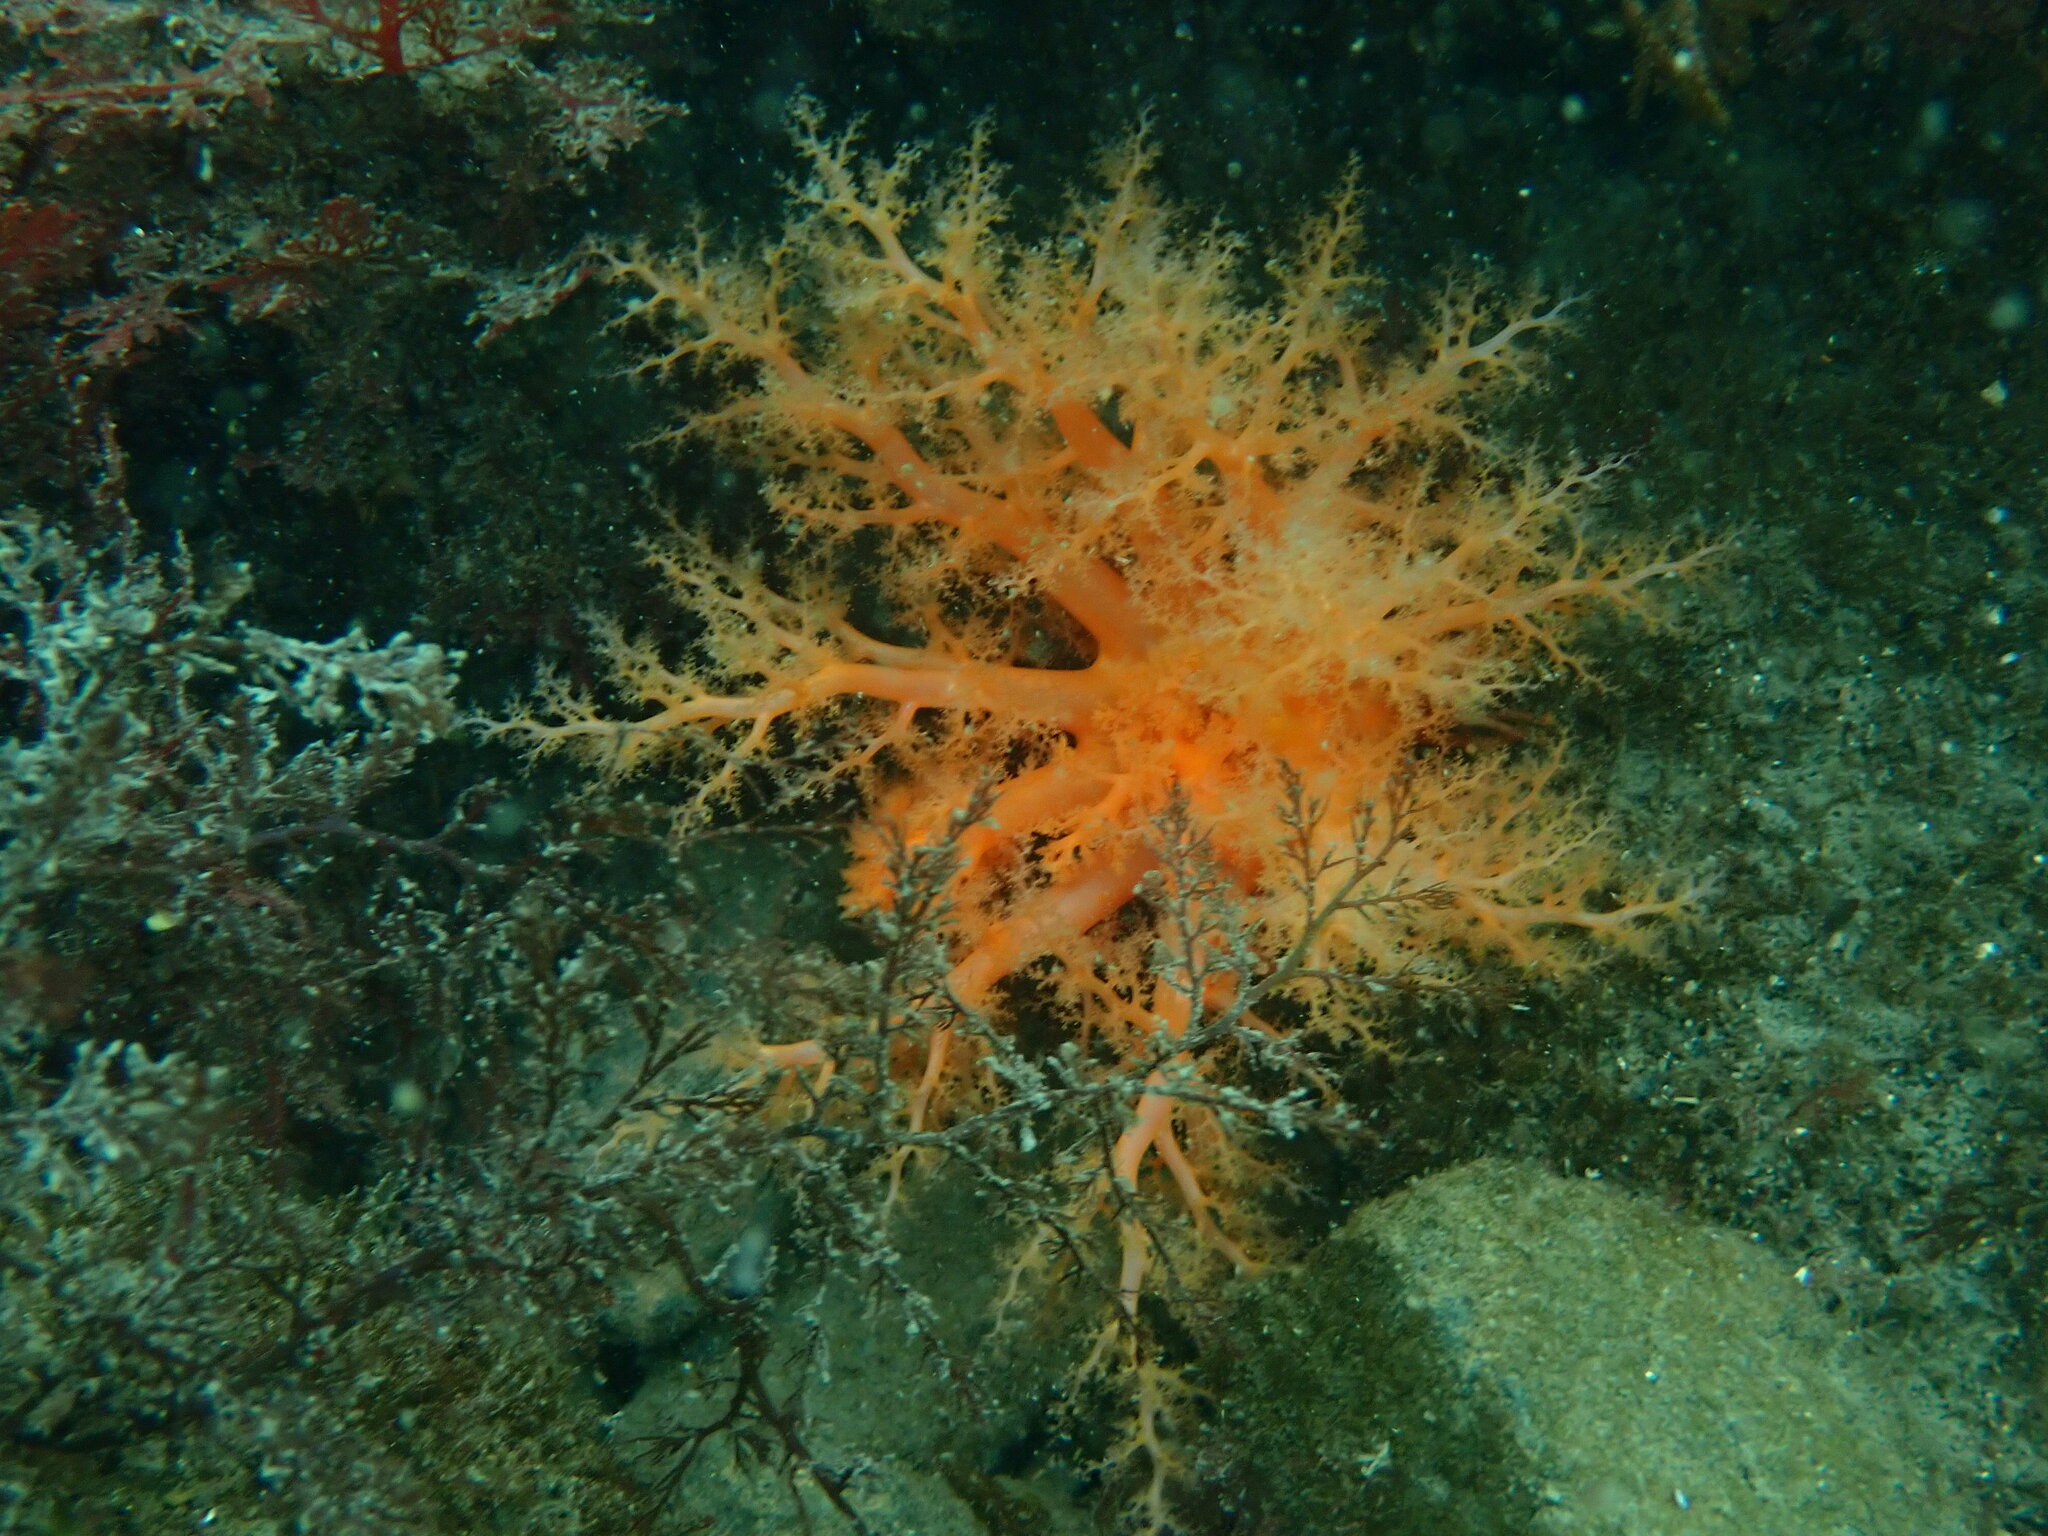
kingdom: Animalia
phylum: Echinodermata
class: Holothuroidea
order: Dendrochirotida
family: Cucumariidae
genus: Cucumaria
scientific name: Cucumaria miniata
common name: Orange sea cucumber
